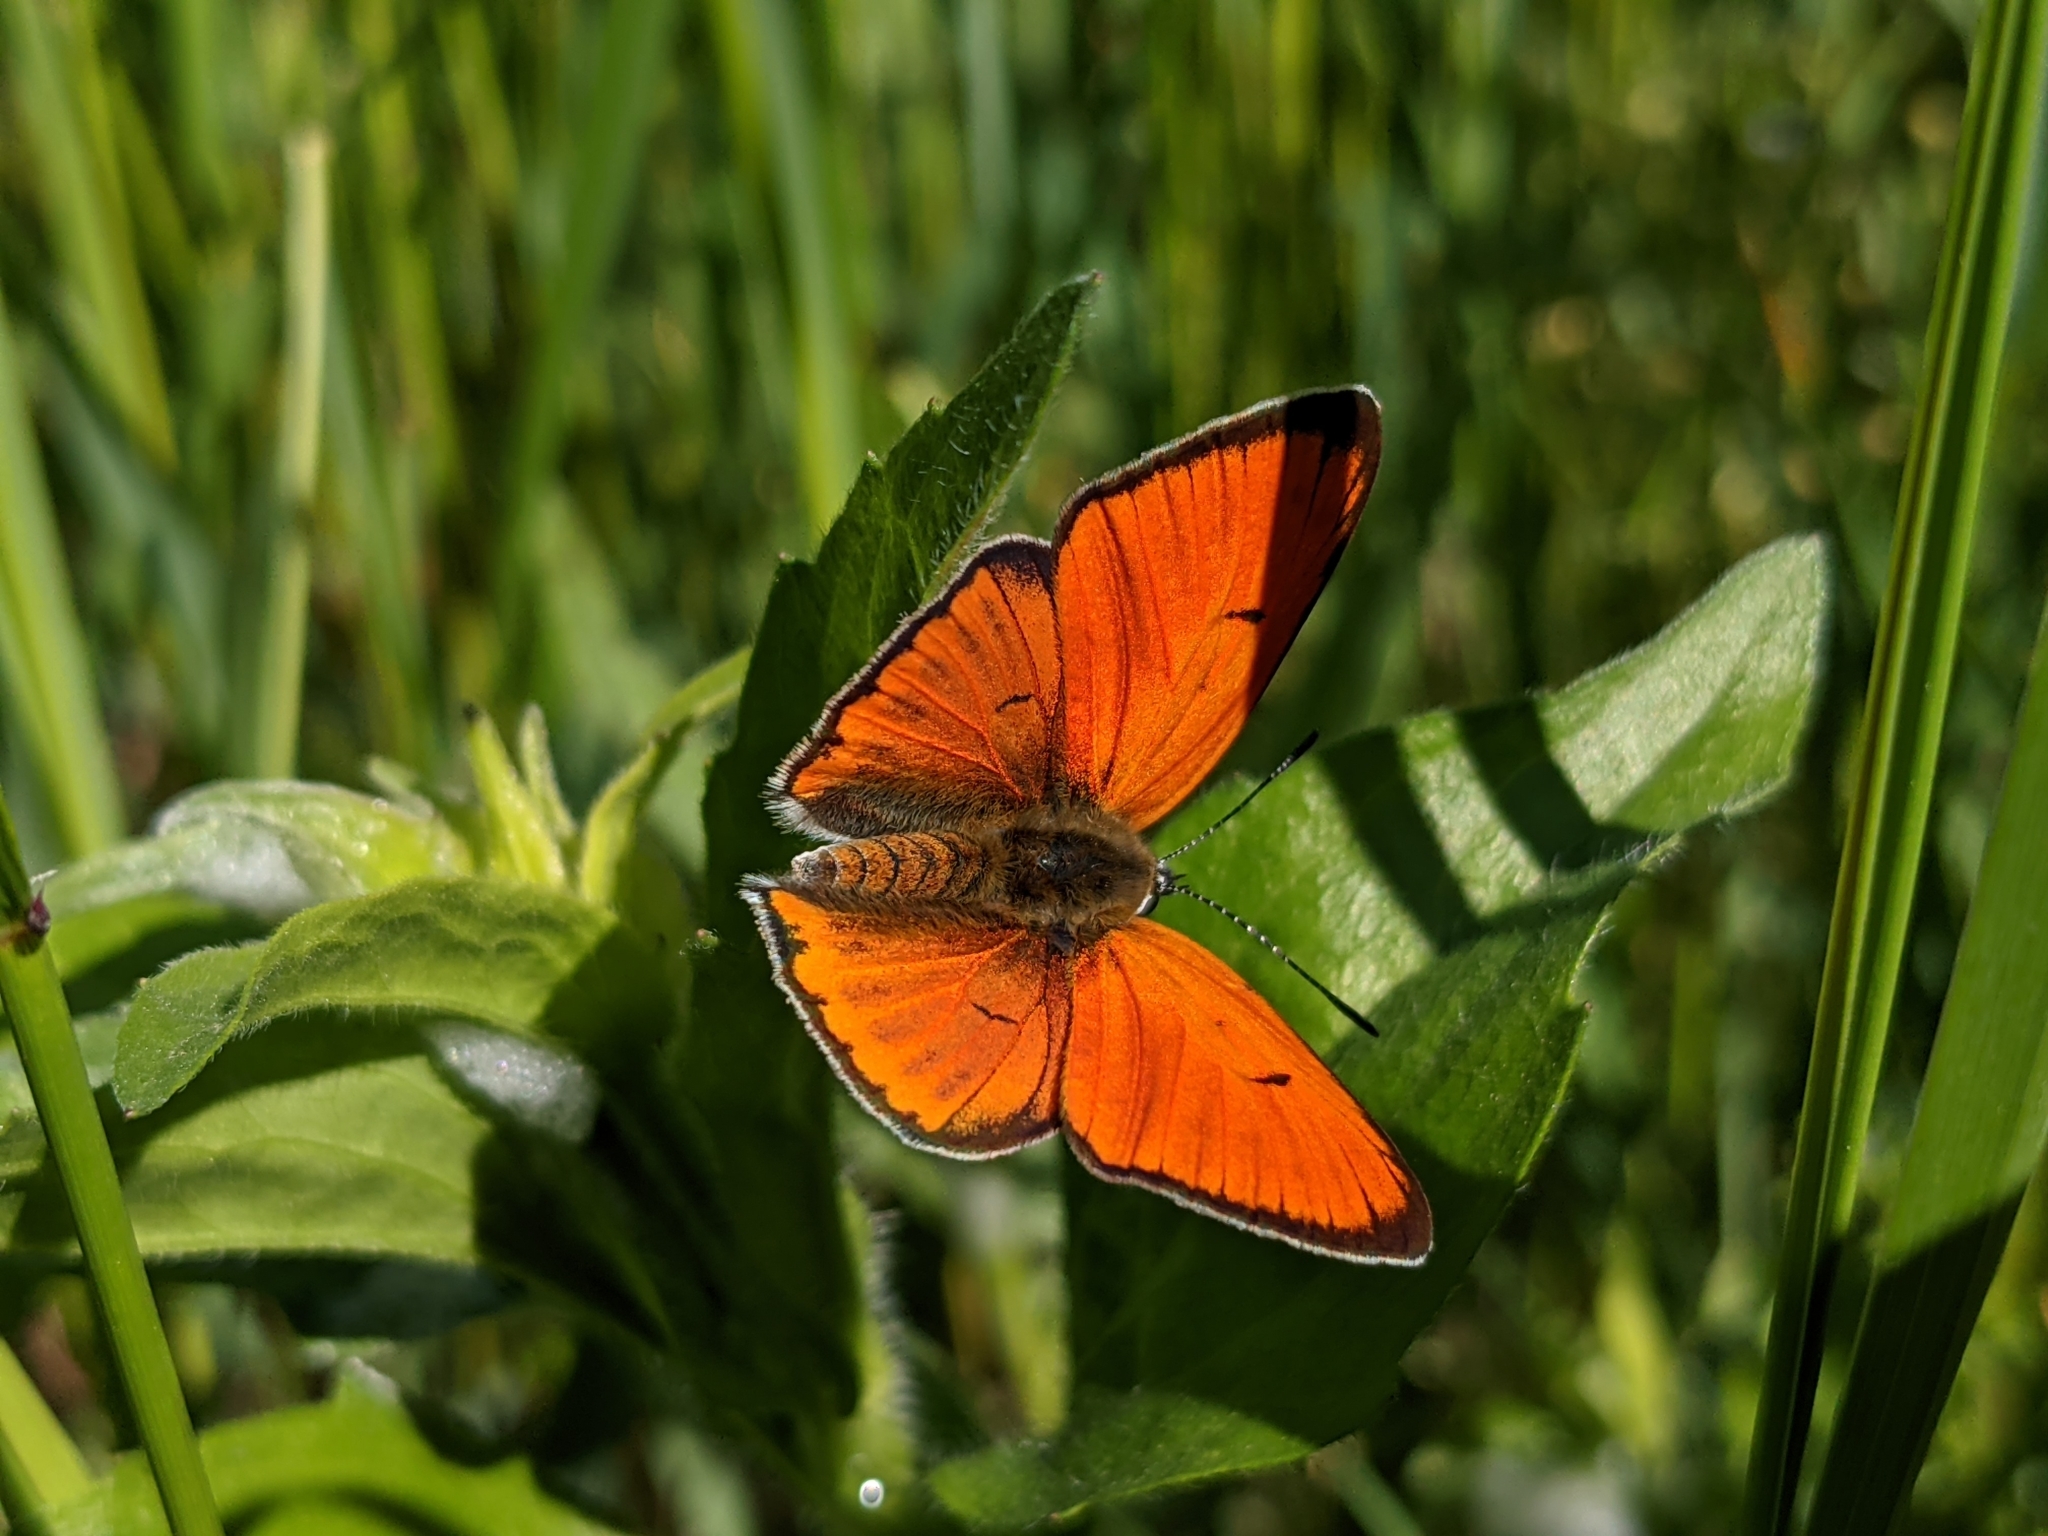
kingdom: Animalia
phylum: Arthropoda
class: Insecta
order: Lepidoptera
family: Lycaenidae
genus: Lycaena
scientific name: Lycaena dispar
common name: Large copper
